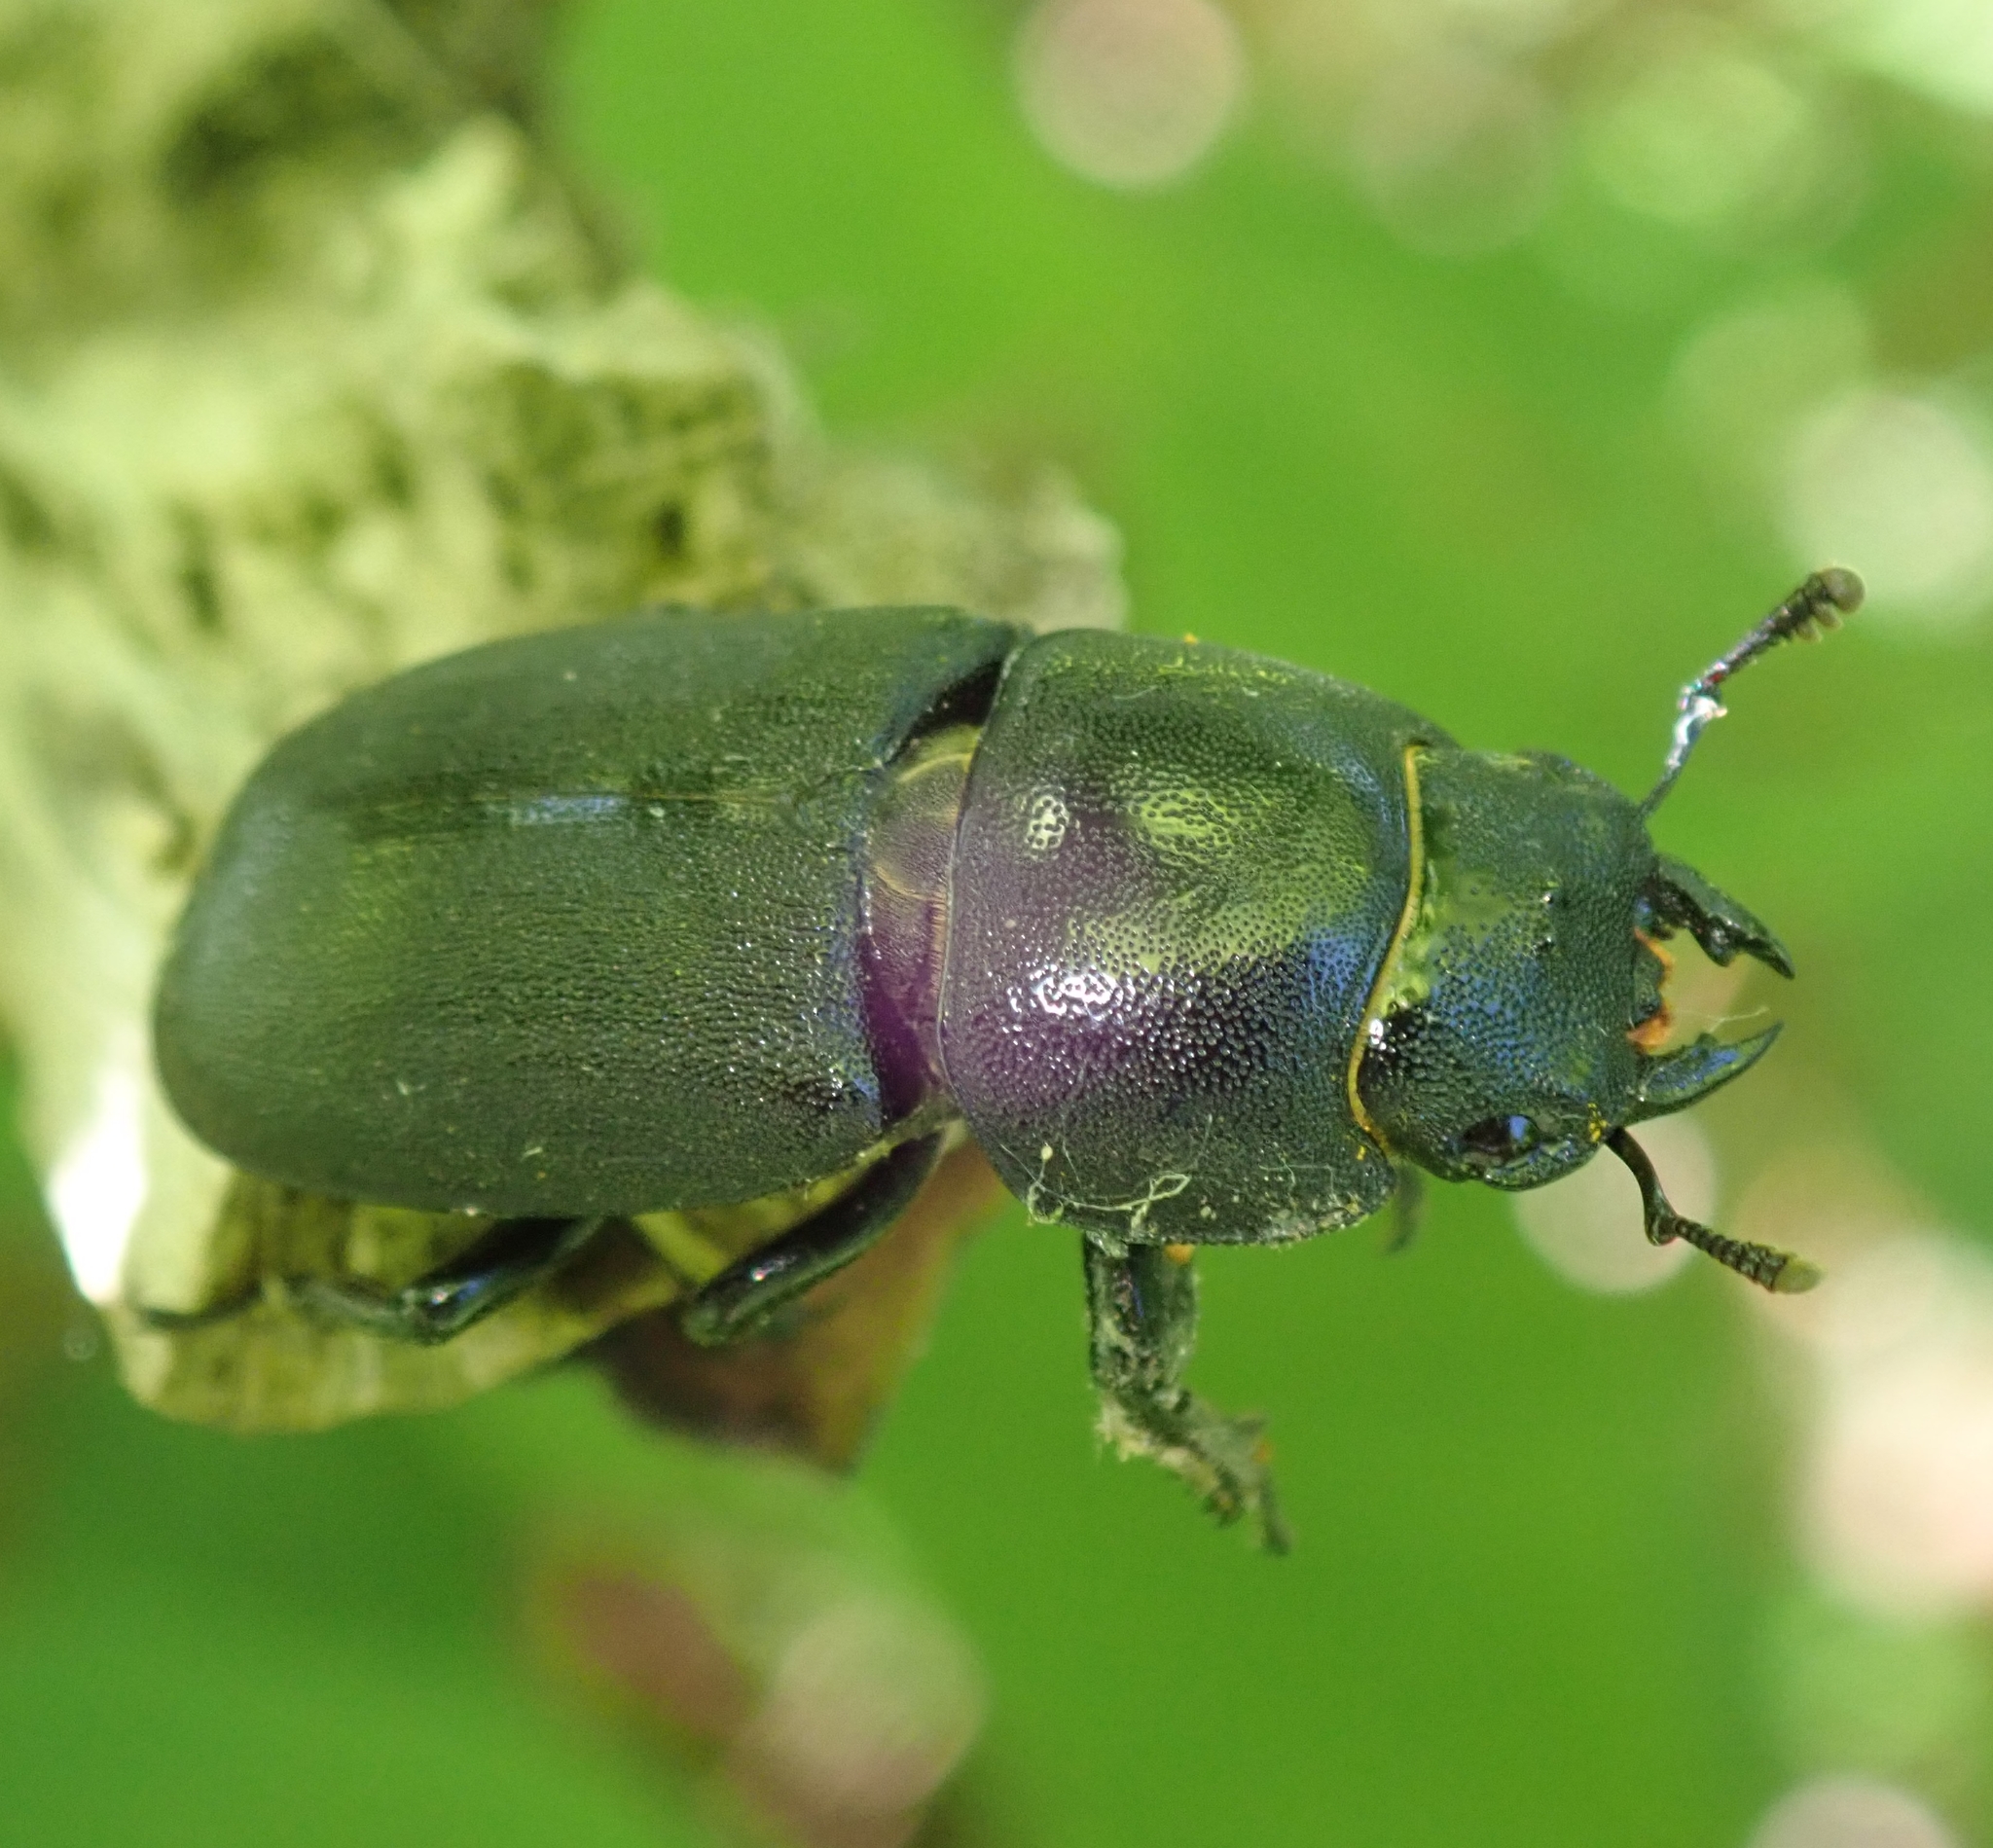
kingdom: Animalia
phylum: Arthropoda
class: Insecta
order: Coleoptera
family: Lucanidae
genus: Dorcus
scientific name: Dorcus parallelipipedus
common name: Lesser stag beetle
